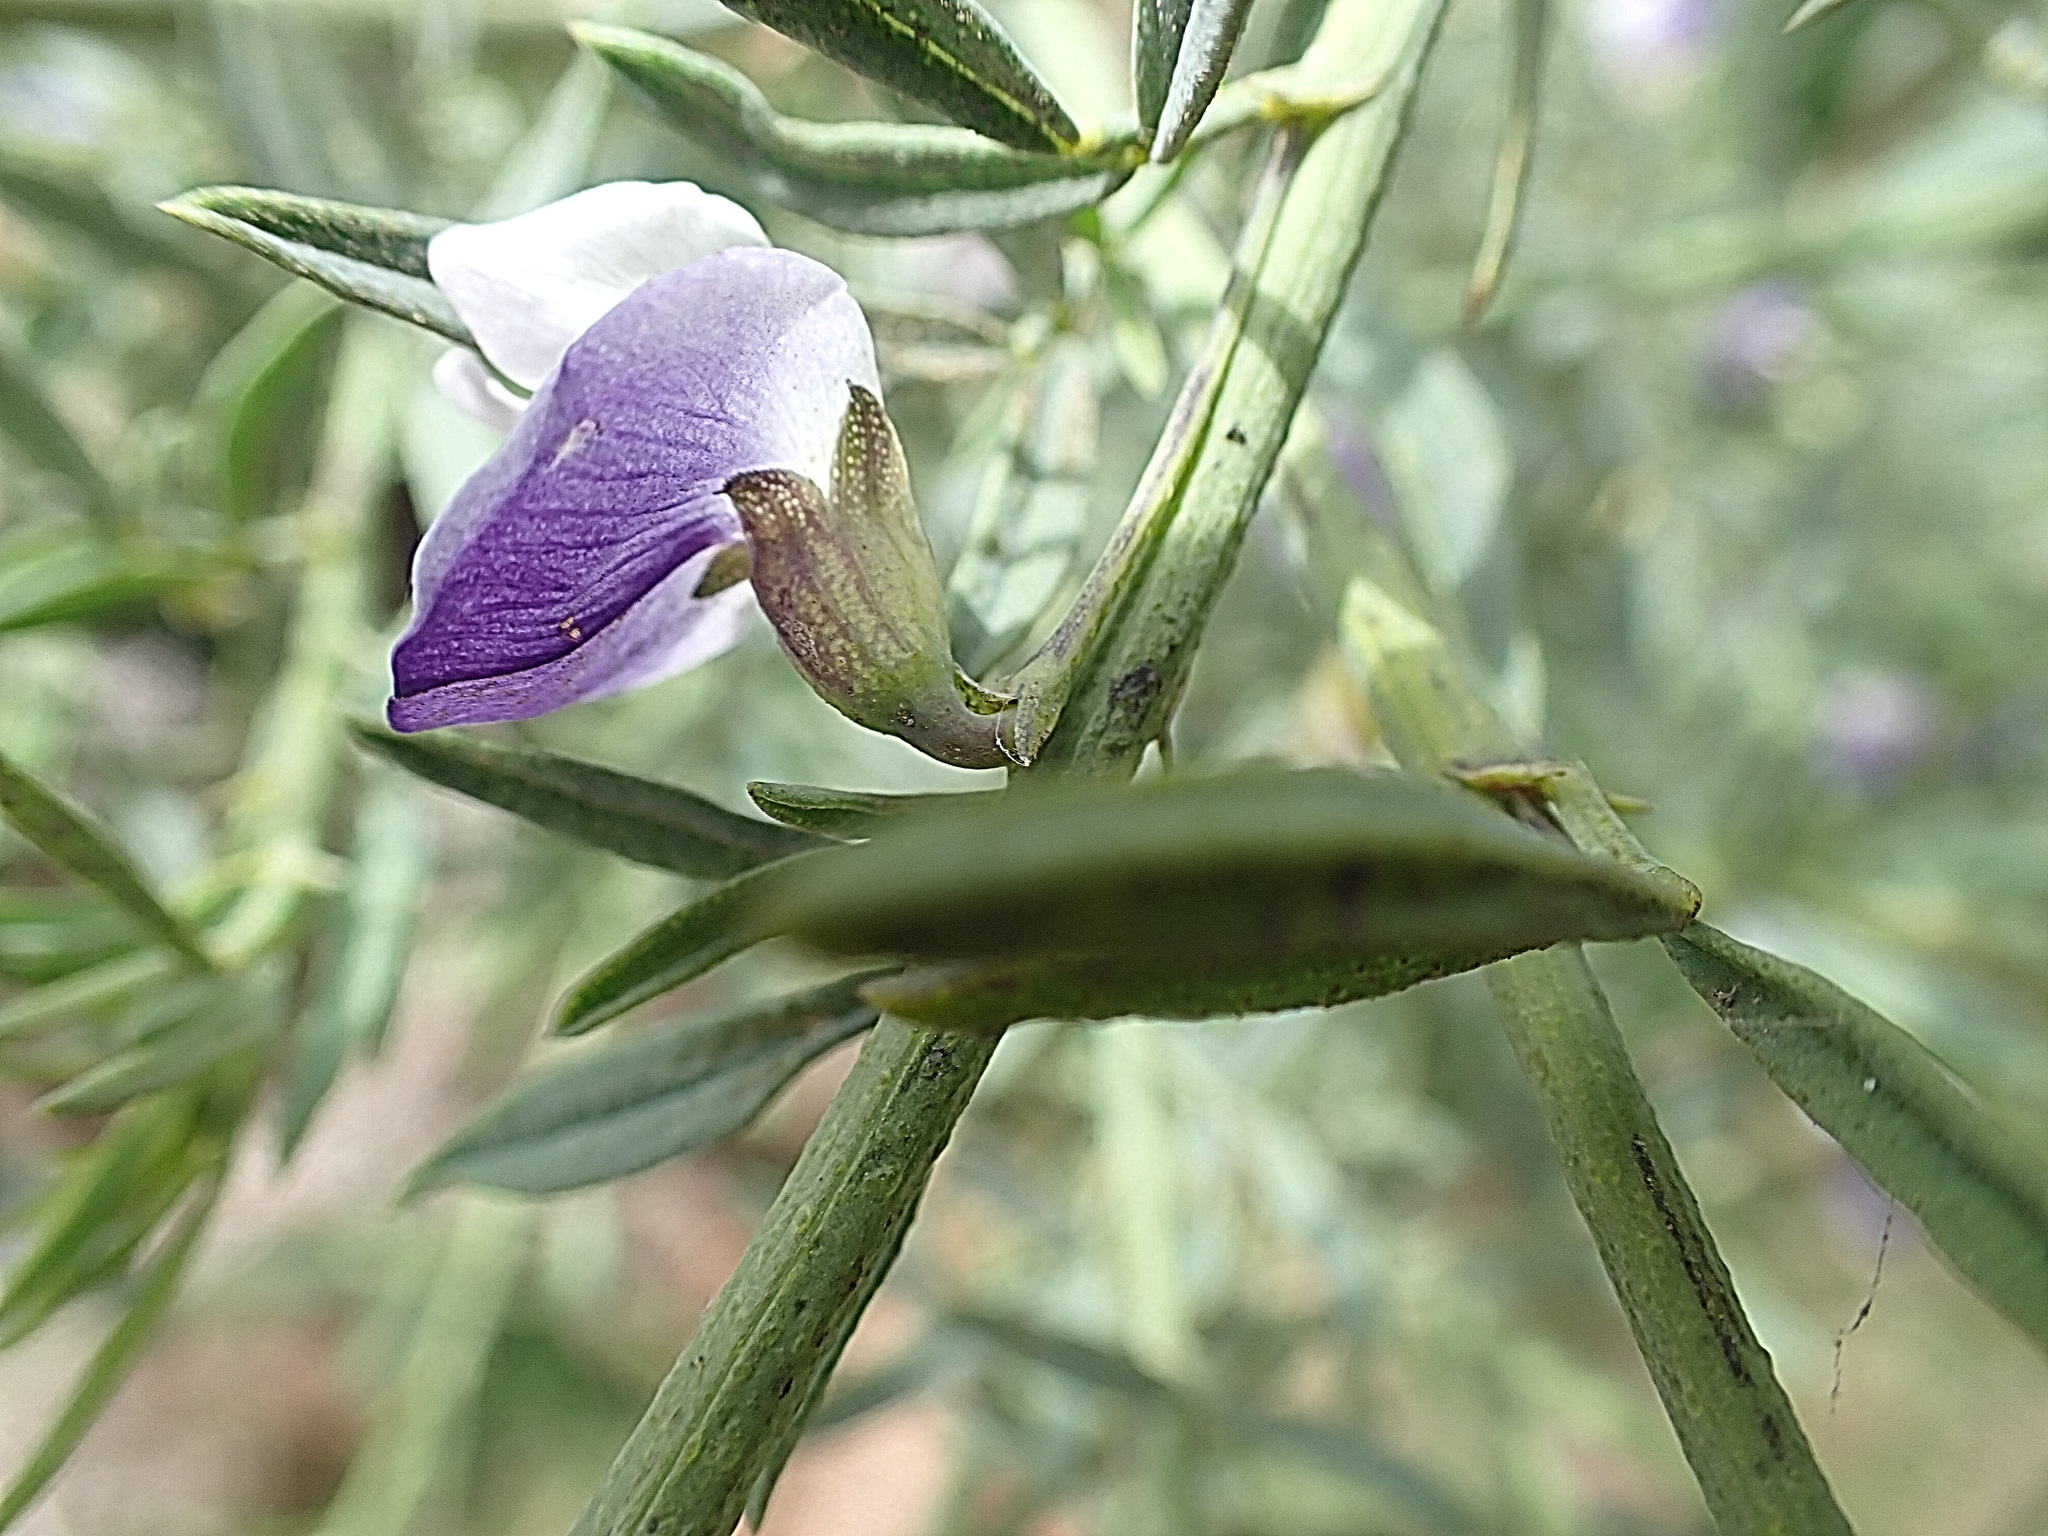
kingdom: Plantae
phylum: Tracheophyta
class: Magnoliopsida
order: Fabales
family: Fabaceae
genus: Psoralea
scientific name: Psoralea axillaris
